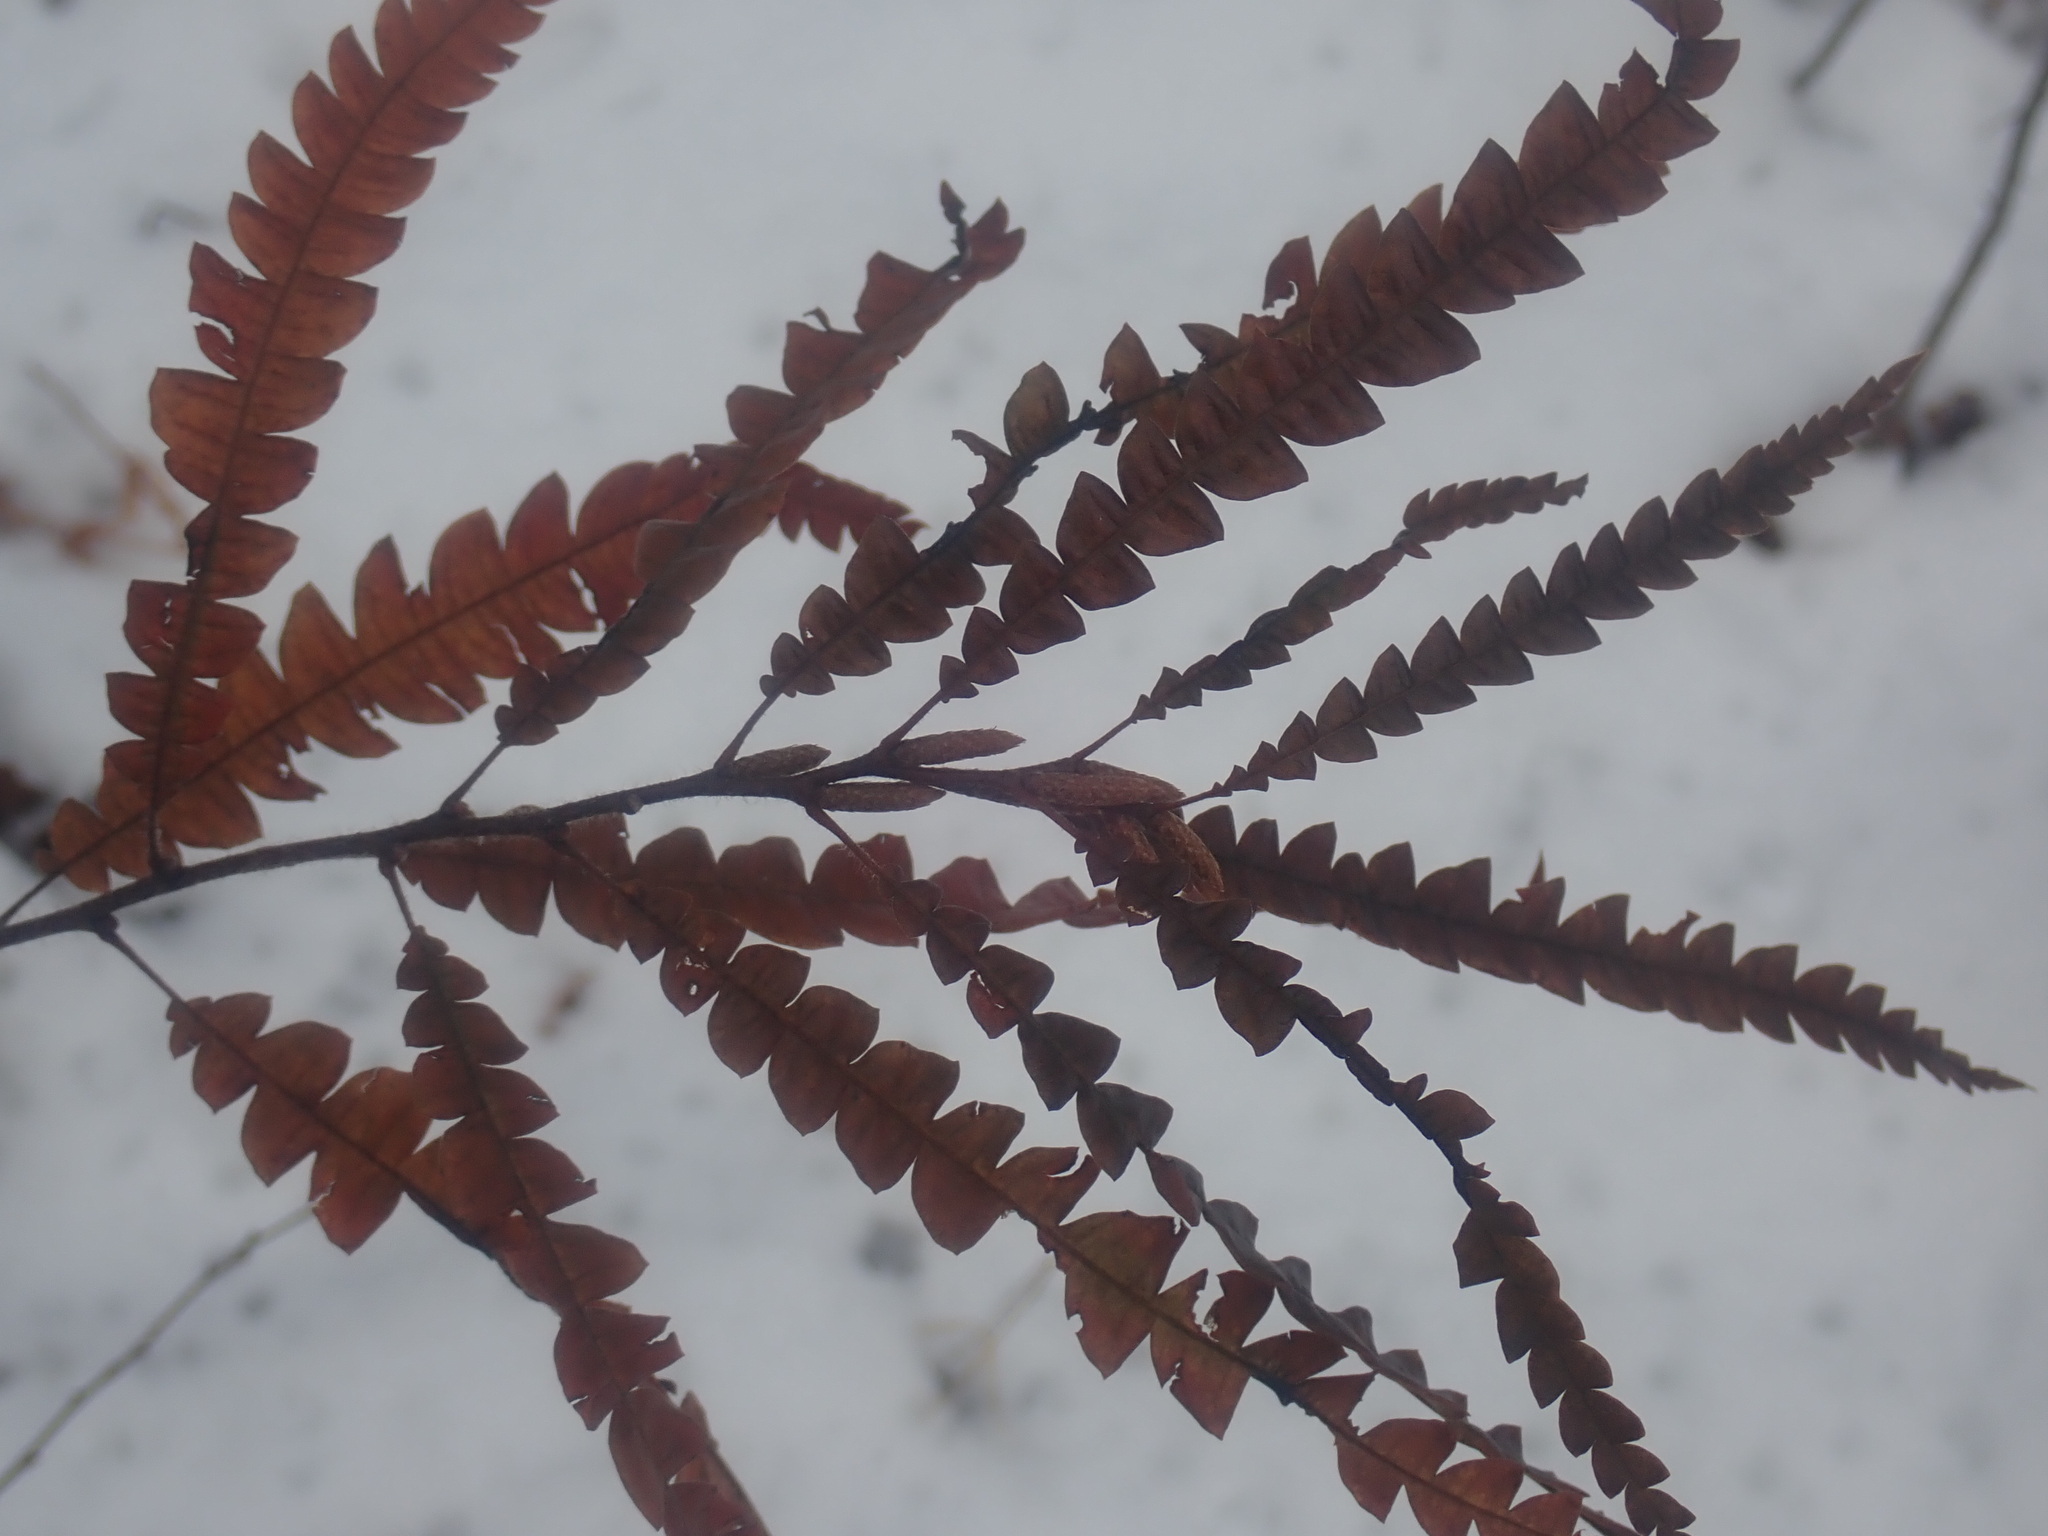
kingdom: Plantae
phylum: Tracheophyta
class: Magnoliopsida
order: Fagales
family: Myricaceae
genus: Comptonia
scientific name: Comptonia peregrina
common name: Sweet-fern
